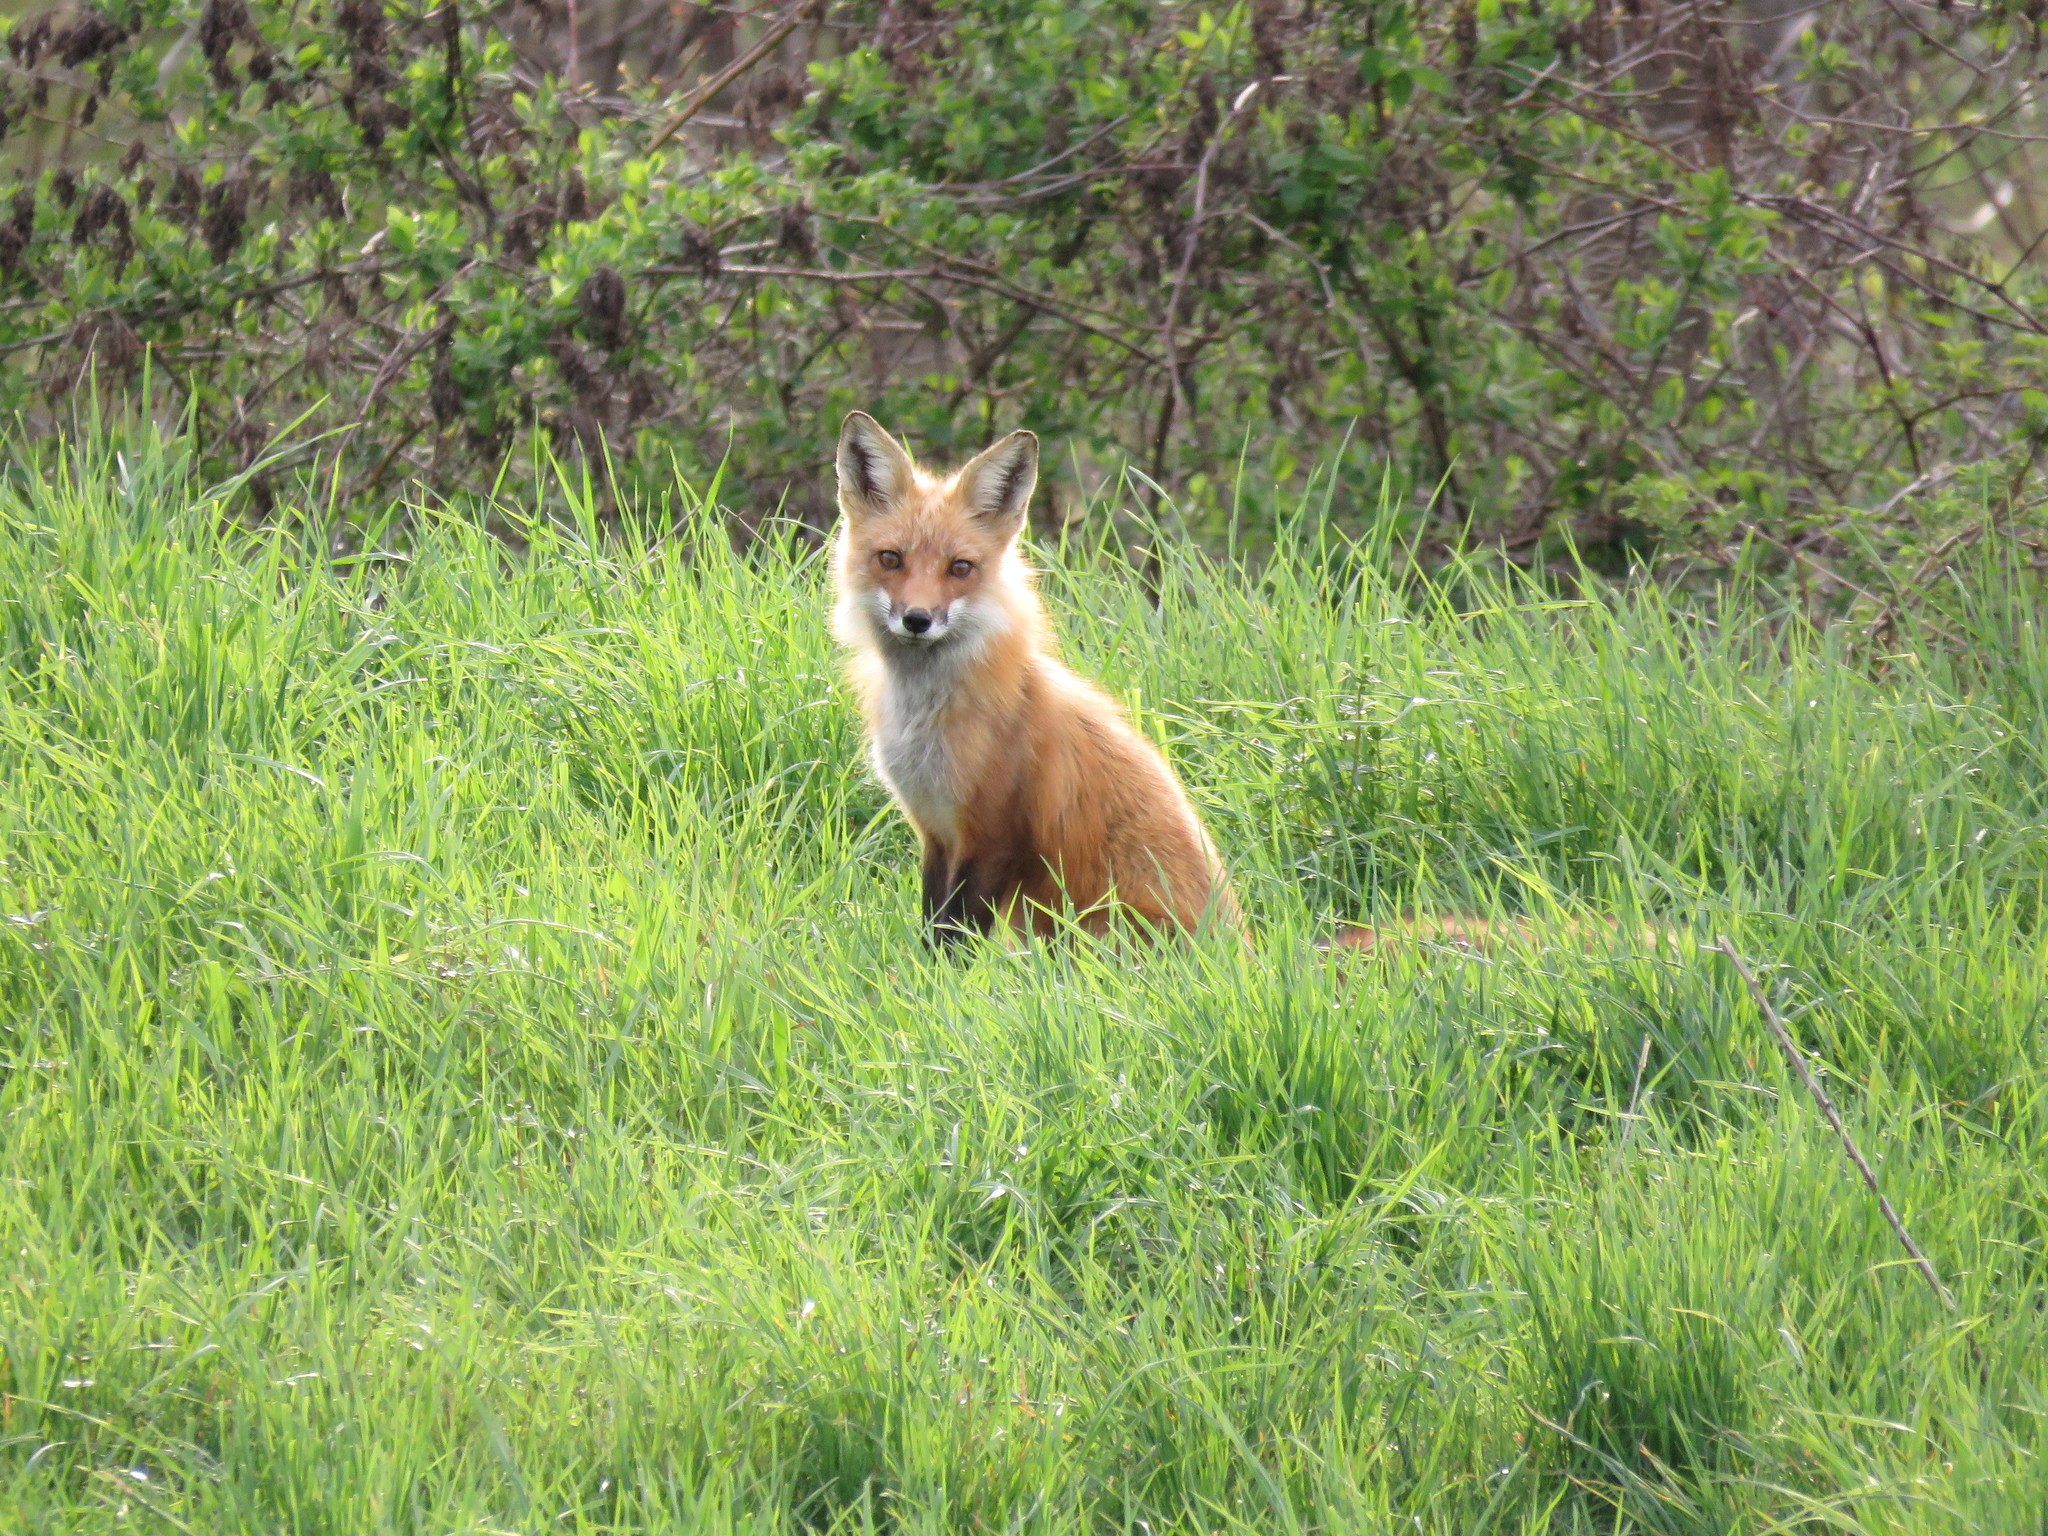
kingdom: Animalia
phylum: Chordata
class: Mammalia
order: Carnivora
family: Canidae
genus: Vulpes
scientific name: Vulpes vulpes
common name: Red fox
